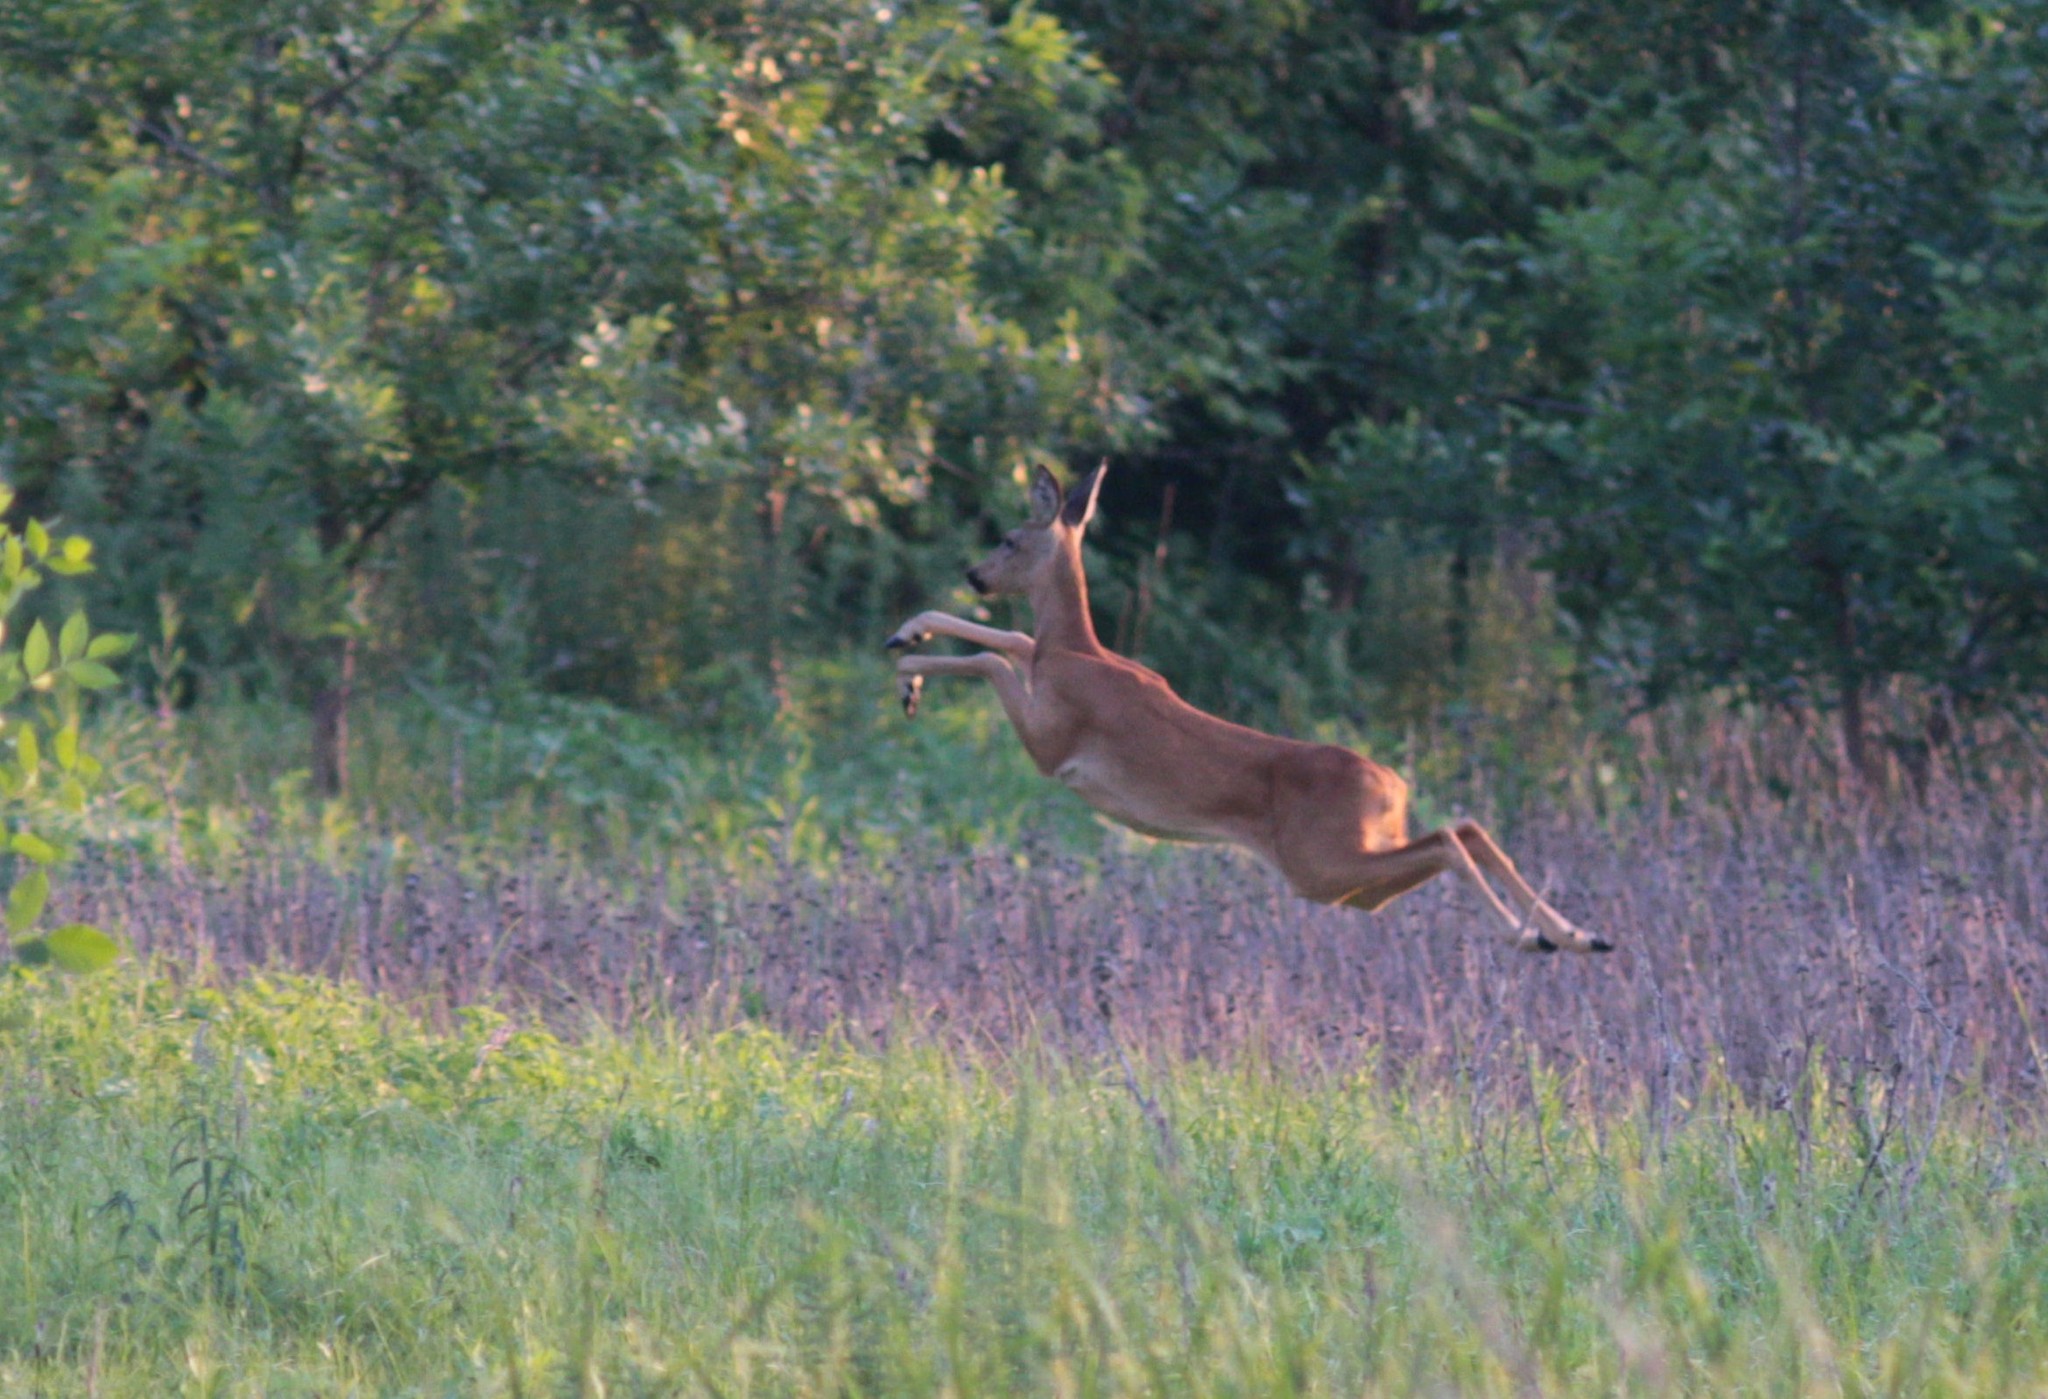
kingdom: Animalia
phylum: Chordata
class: Mammalia
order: Artiodactyla
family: Cervidae
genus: Capreolus
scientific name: Capreolus pygargus
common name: Siberian roe
